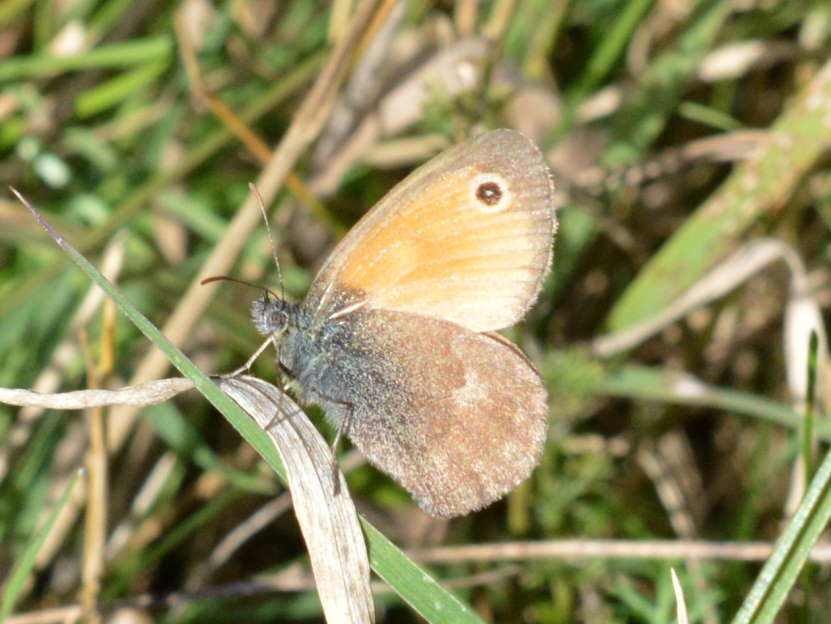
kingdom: Animalia
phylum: Arthropoda
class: Insecta
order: Lepidoptera
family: Nymphalidae
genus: Coenonympha
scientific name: Coenonympha pamphilus
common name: Small heath
